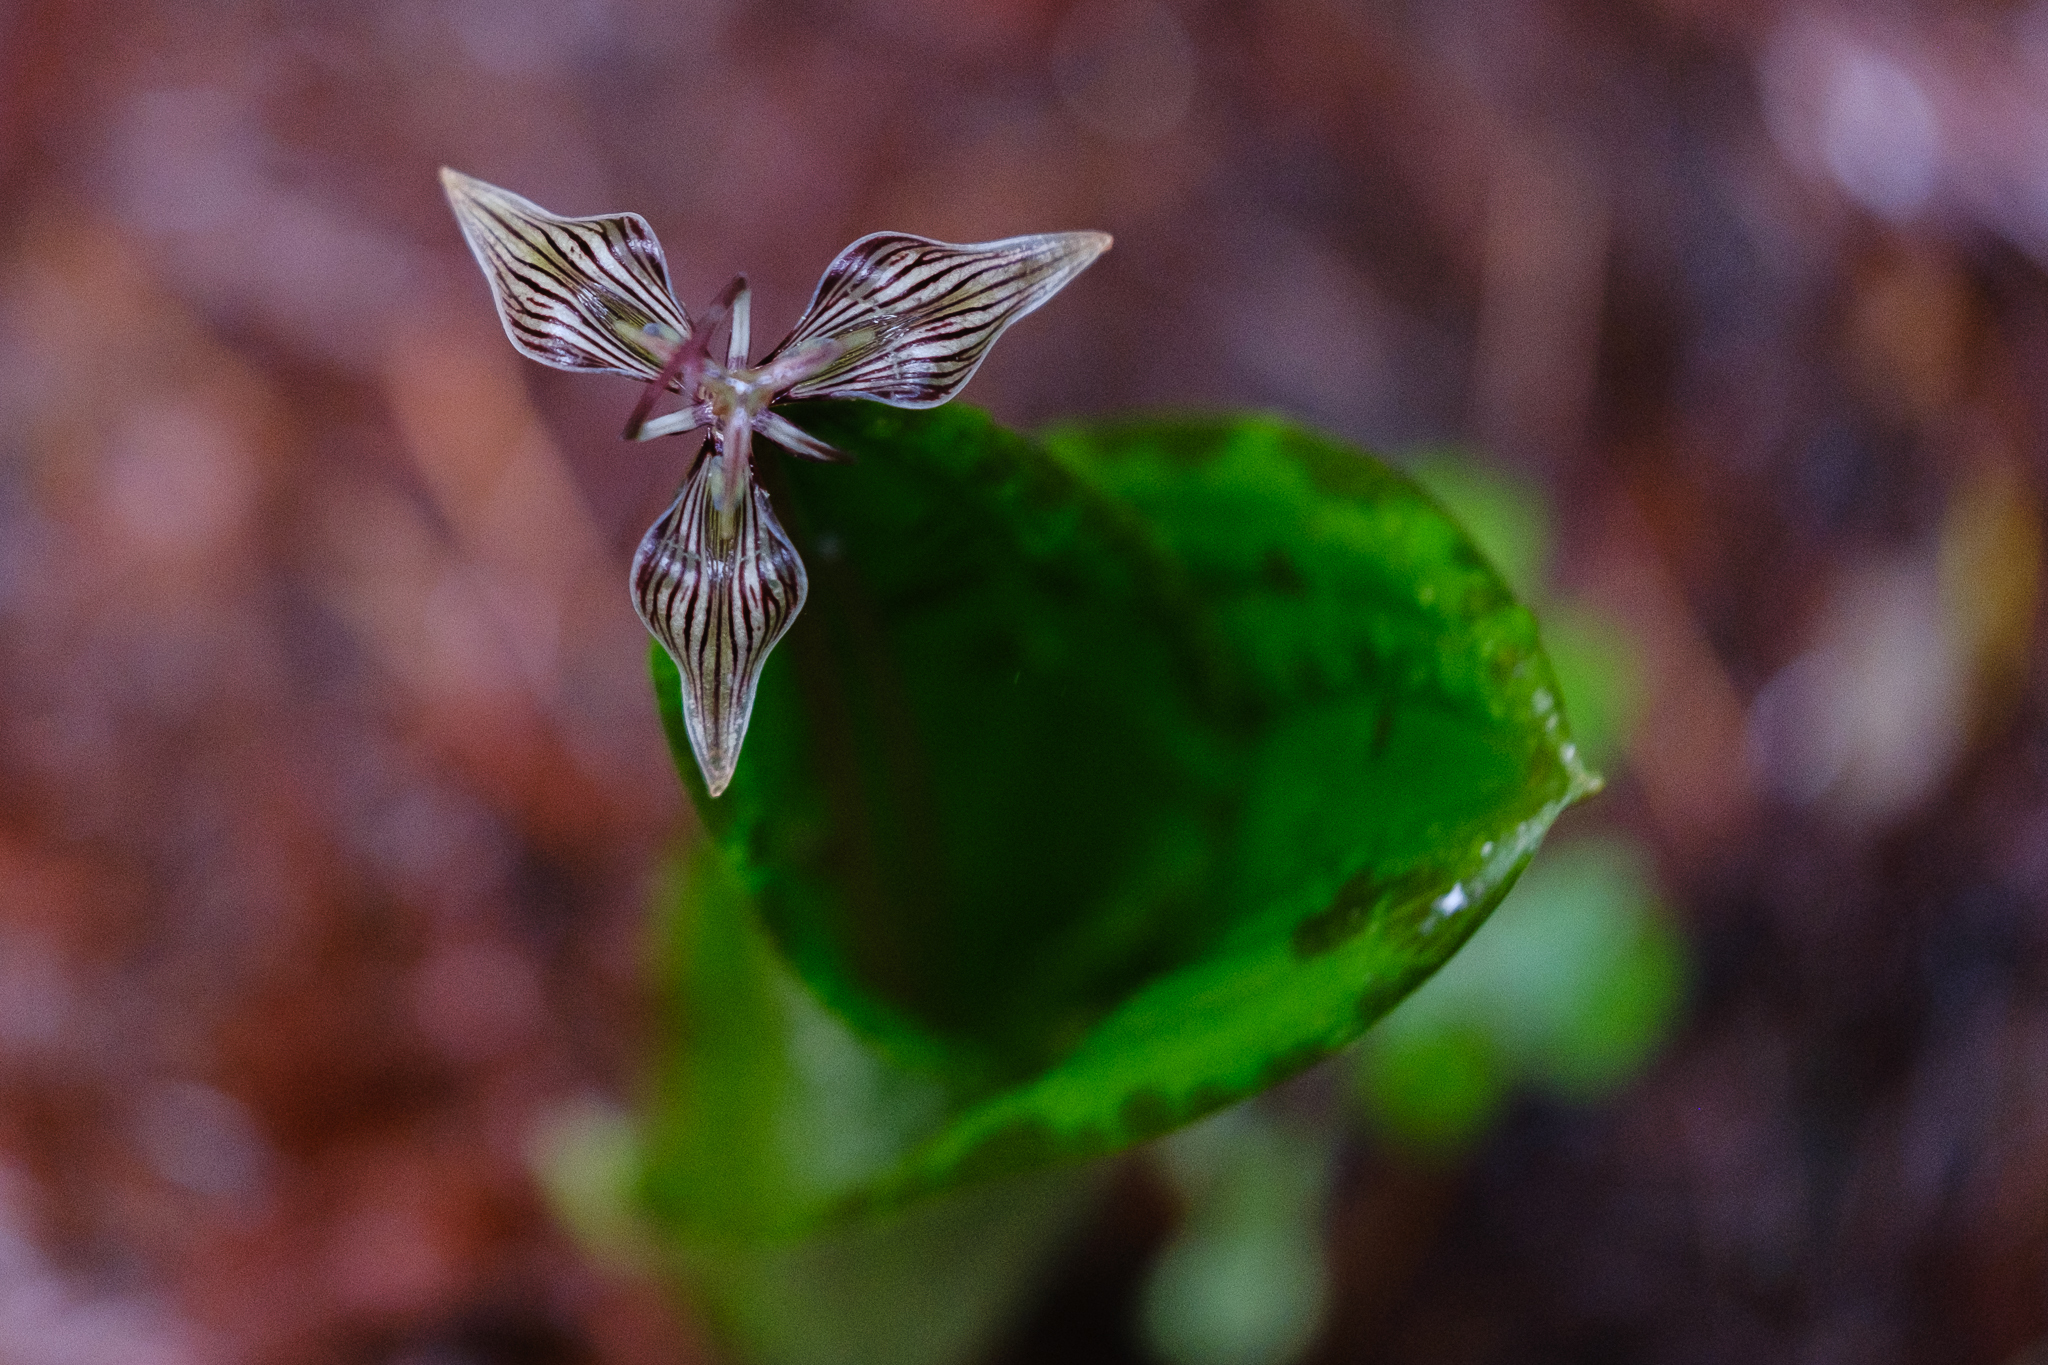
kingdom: Plantae
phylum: Tracheophyta
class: Liliopsida
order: Liliales
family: Liliaceae
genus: Scoliopus
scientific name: Scoliopus bigelovii
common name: Foetid adder's-tongue
